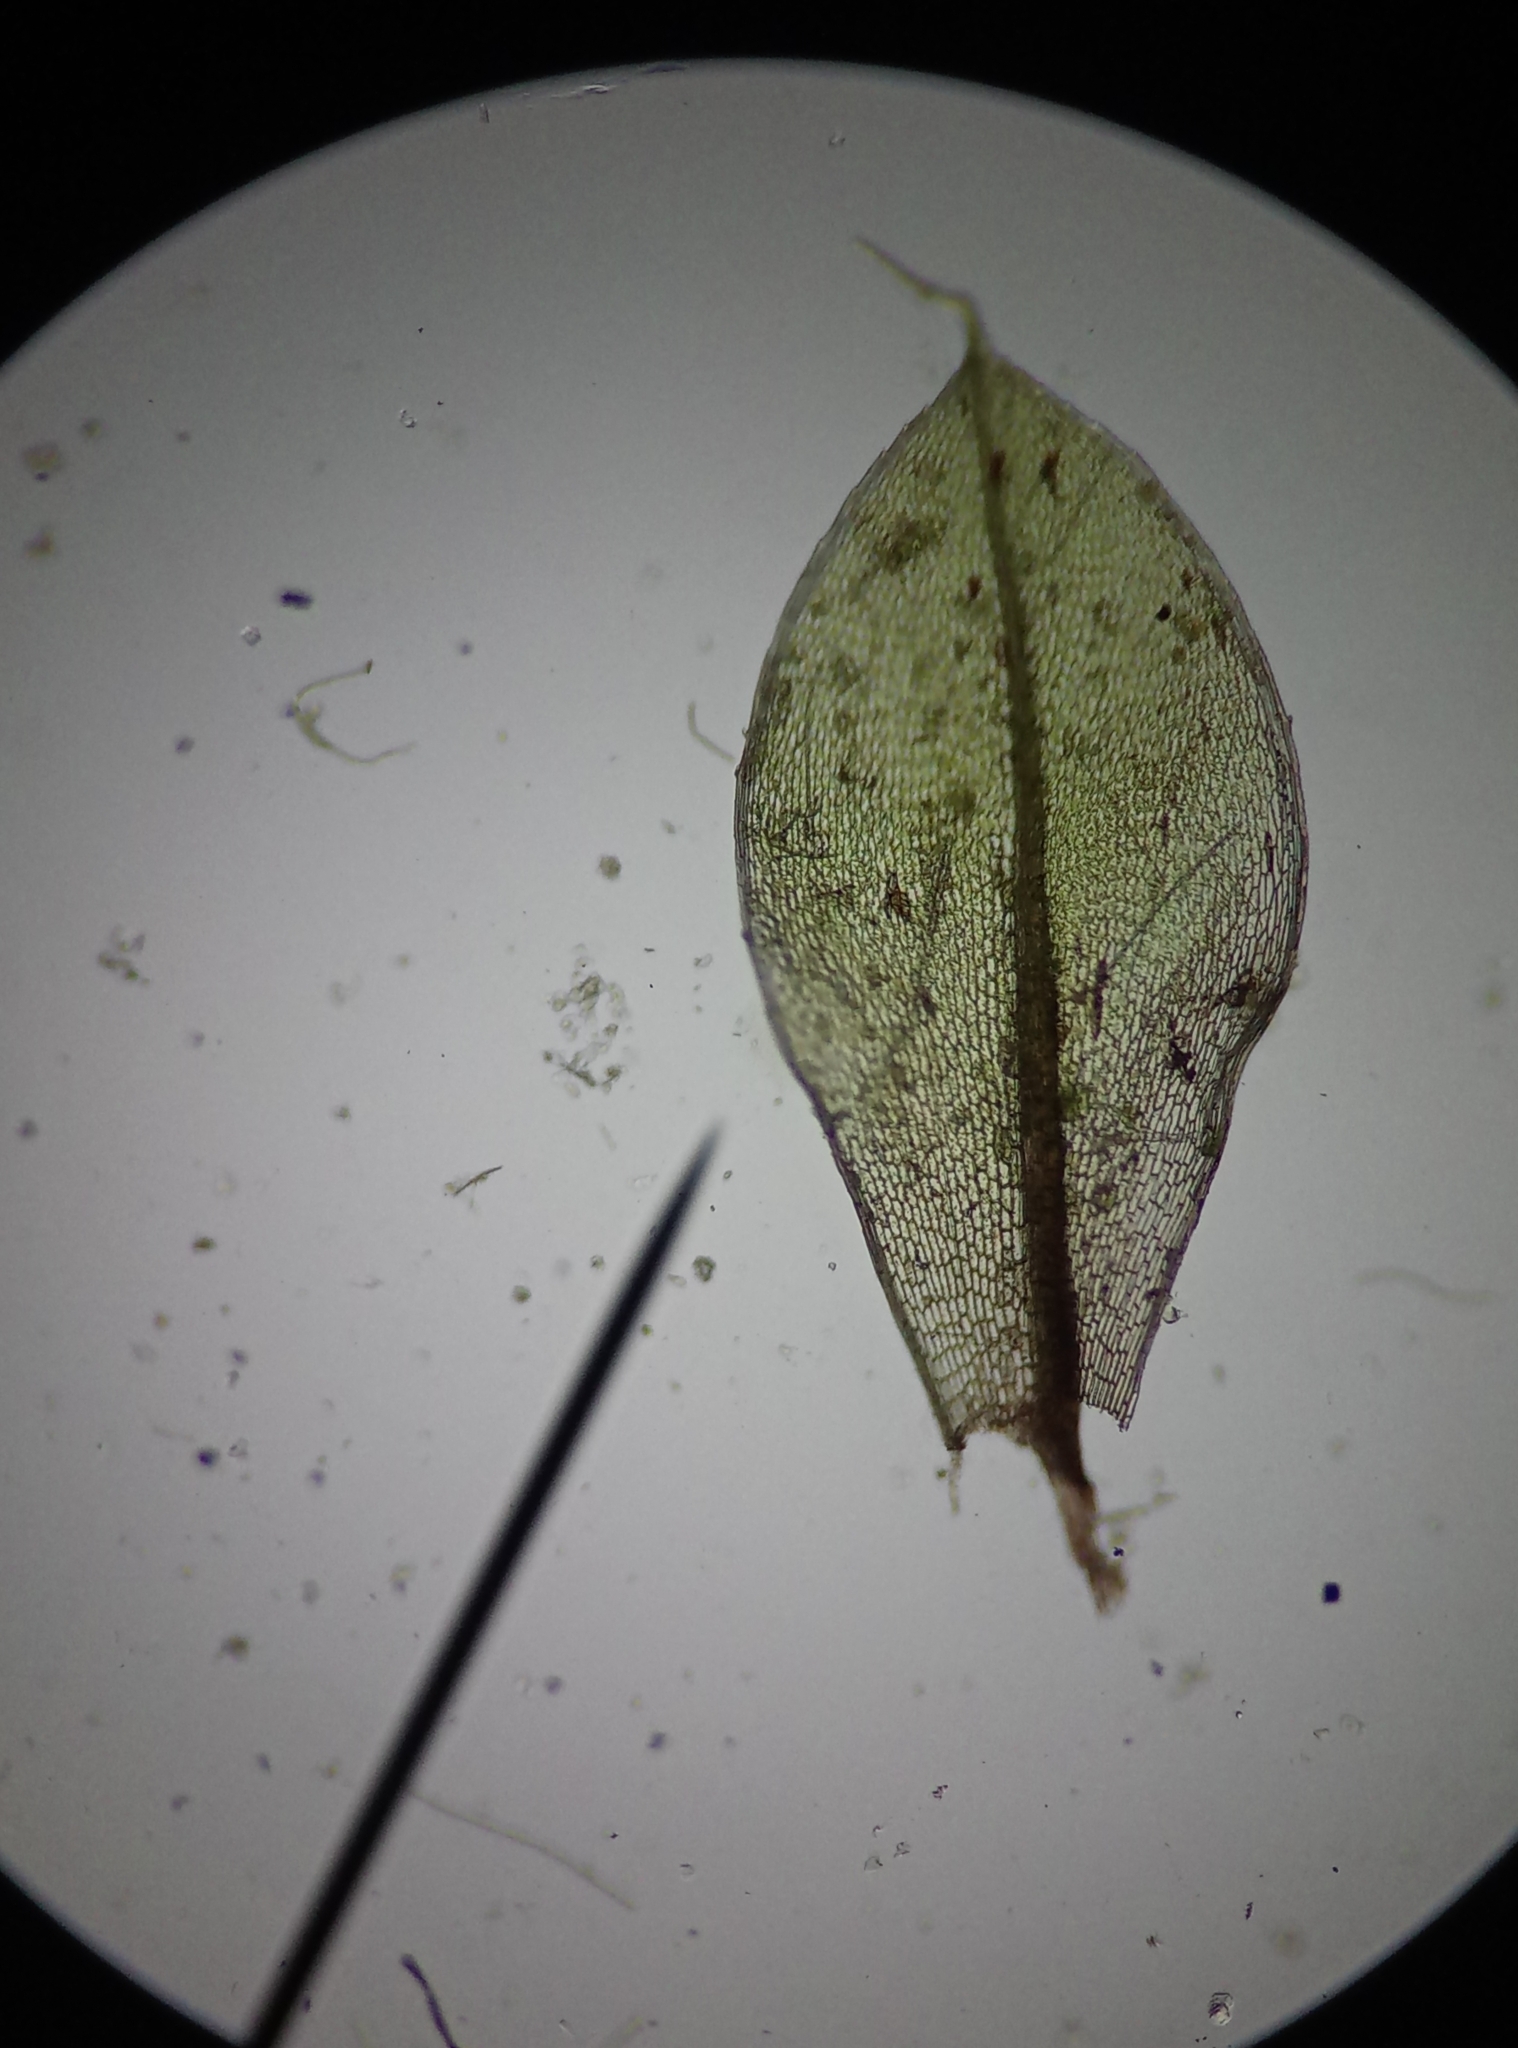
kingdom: Plantae
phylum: Bryophyta
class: Bryopsida
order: Bryales
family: Bryaceae
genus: Rosulabryum
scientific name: Rosulabryum capillare
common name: Capillary thread-moss
